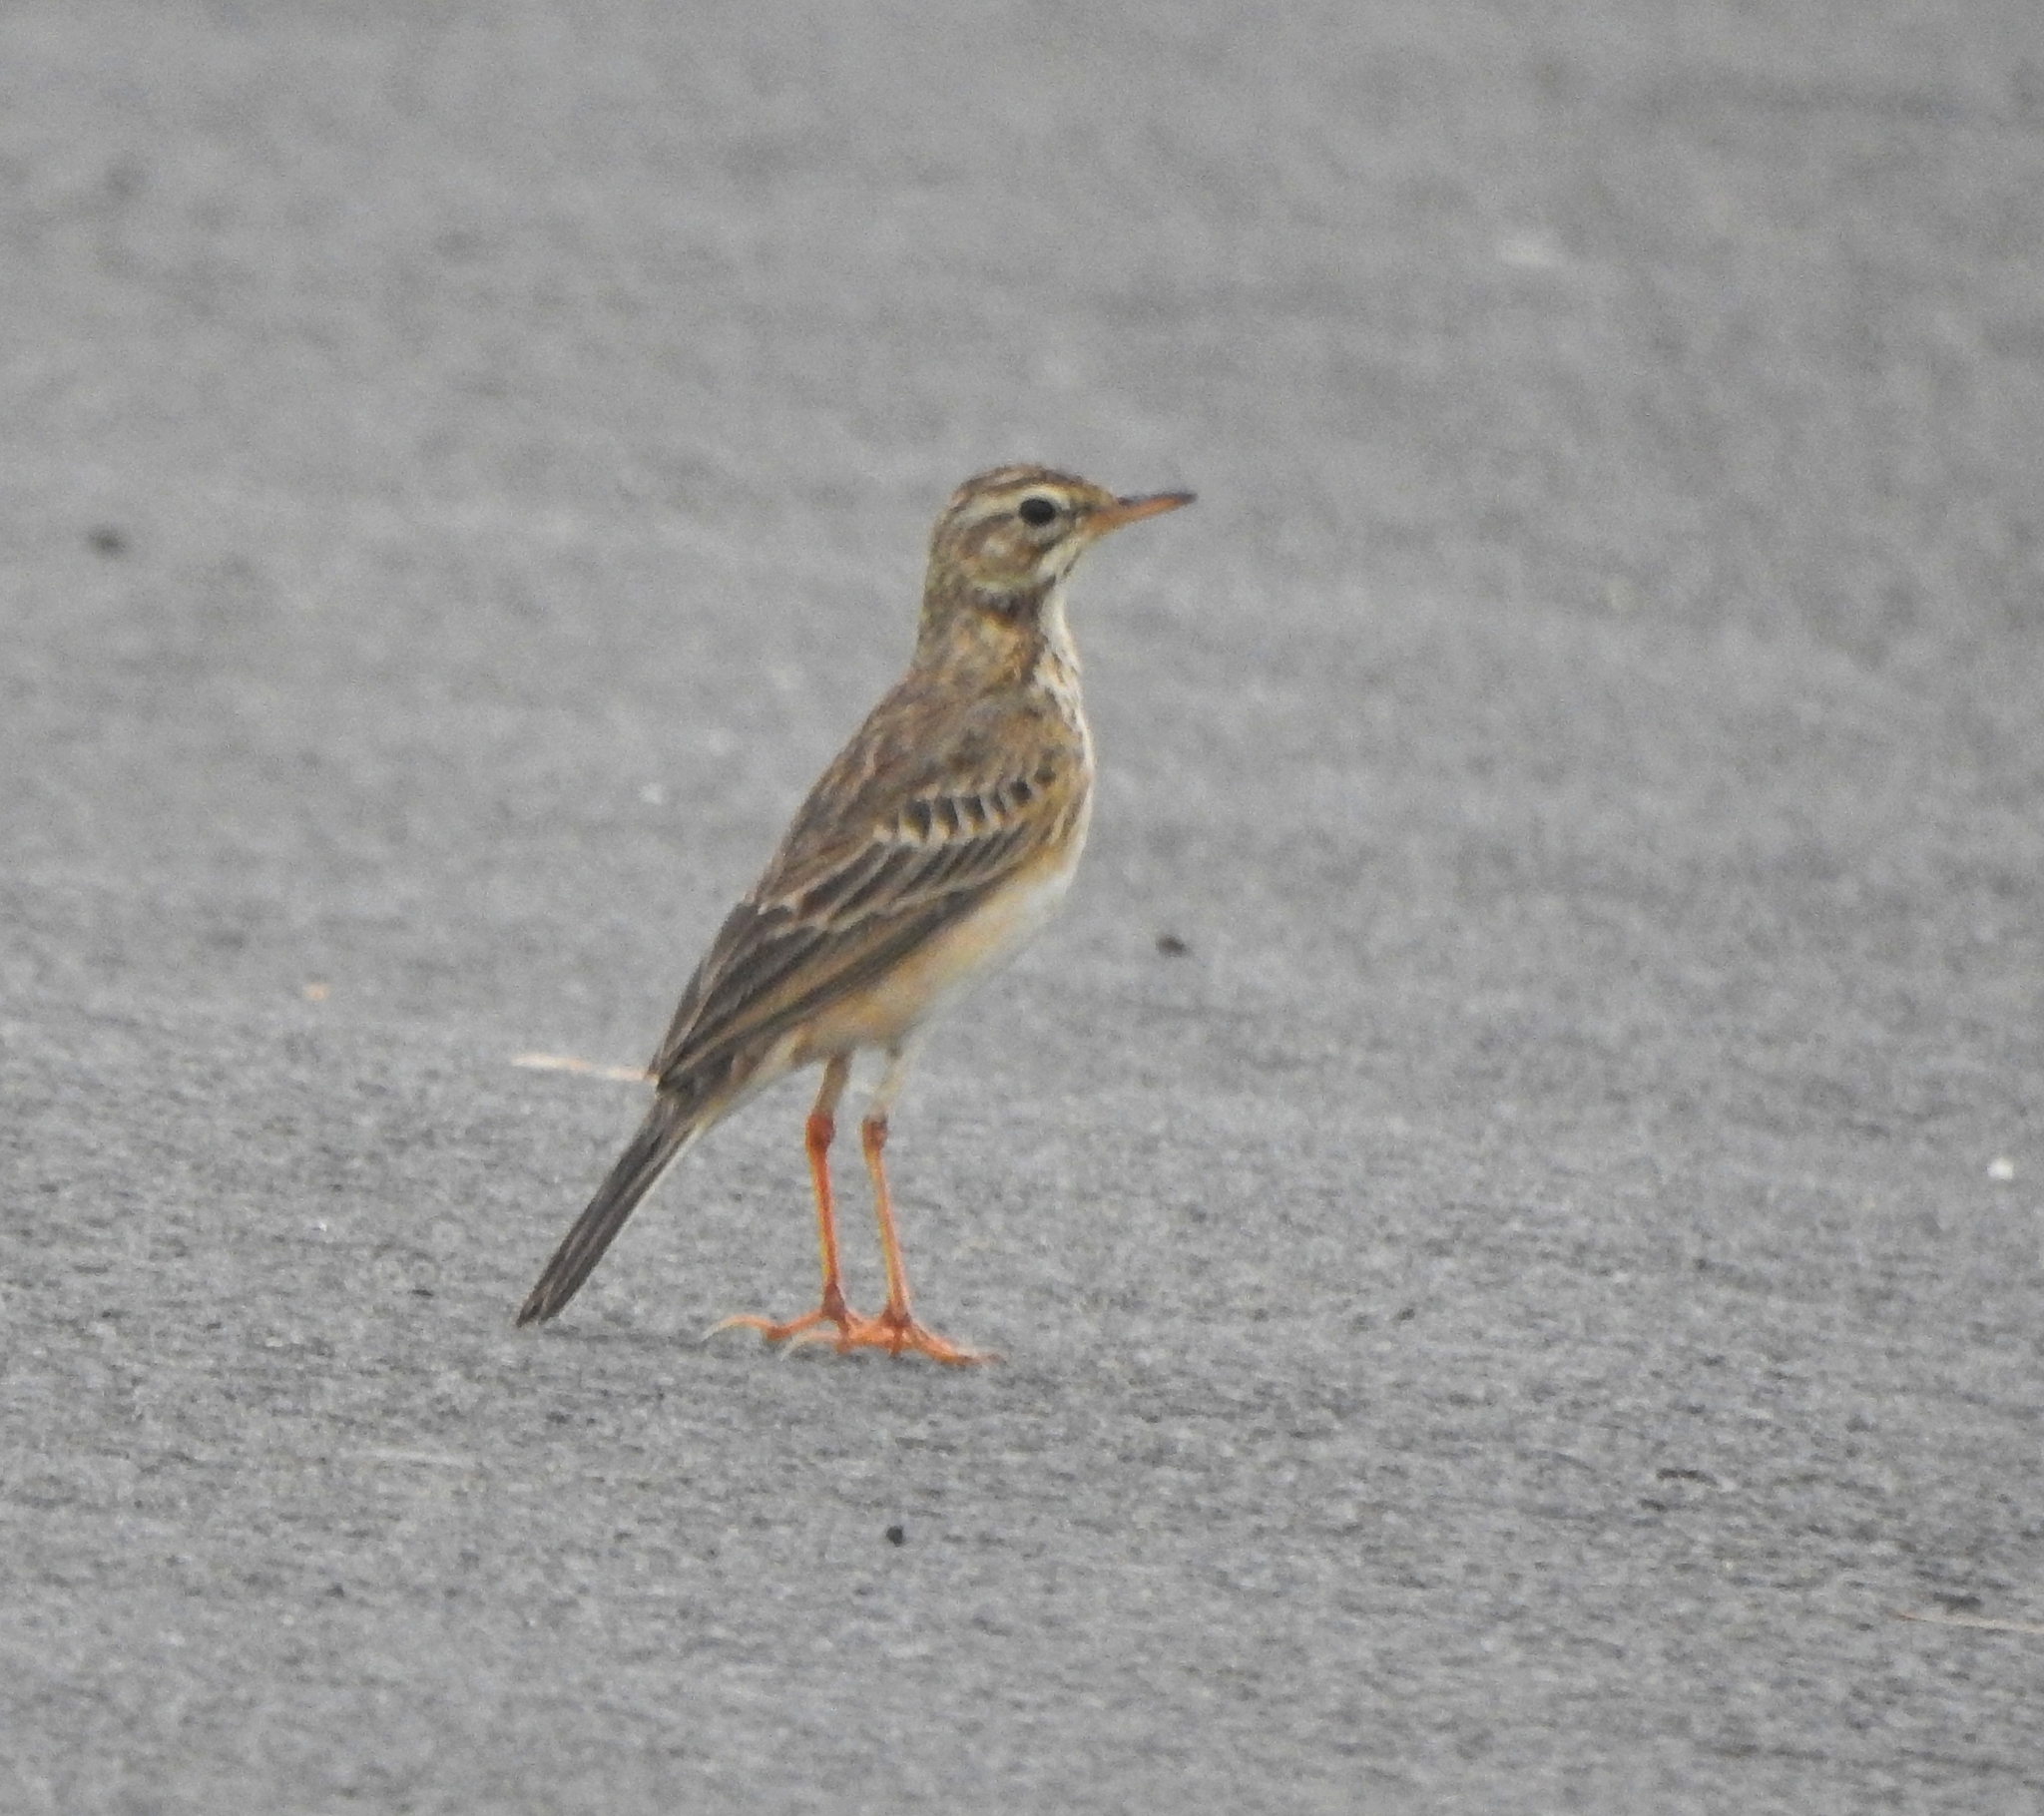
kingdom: Animalia
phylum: Chordata
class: Aves
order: Passeriformes
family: Motacillidae
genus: Anthus
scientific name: Anthus rufulus
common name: Paddyfield pipit
